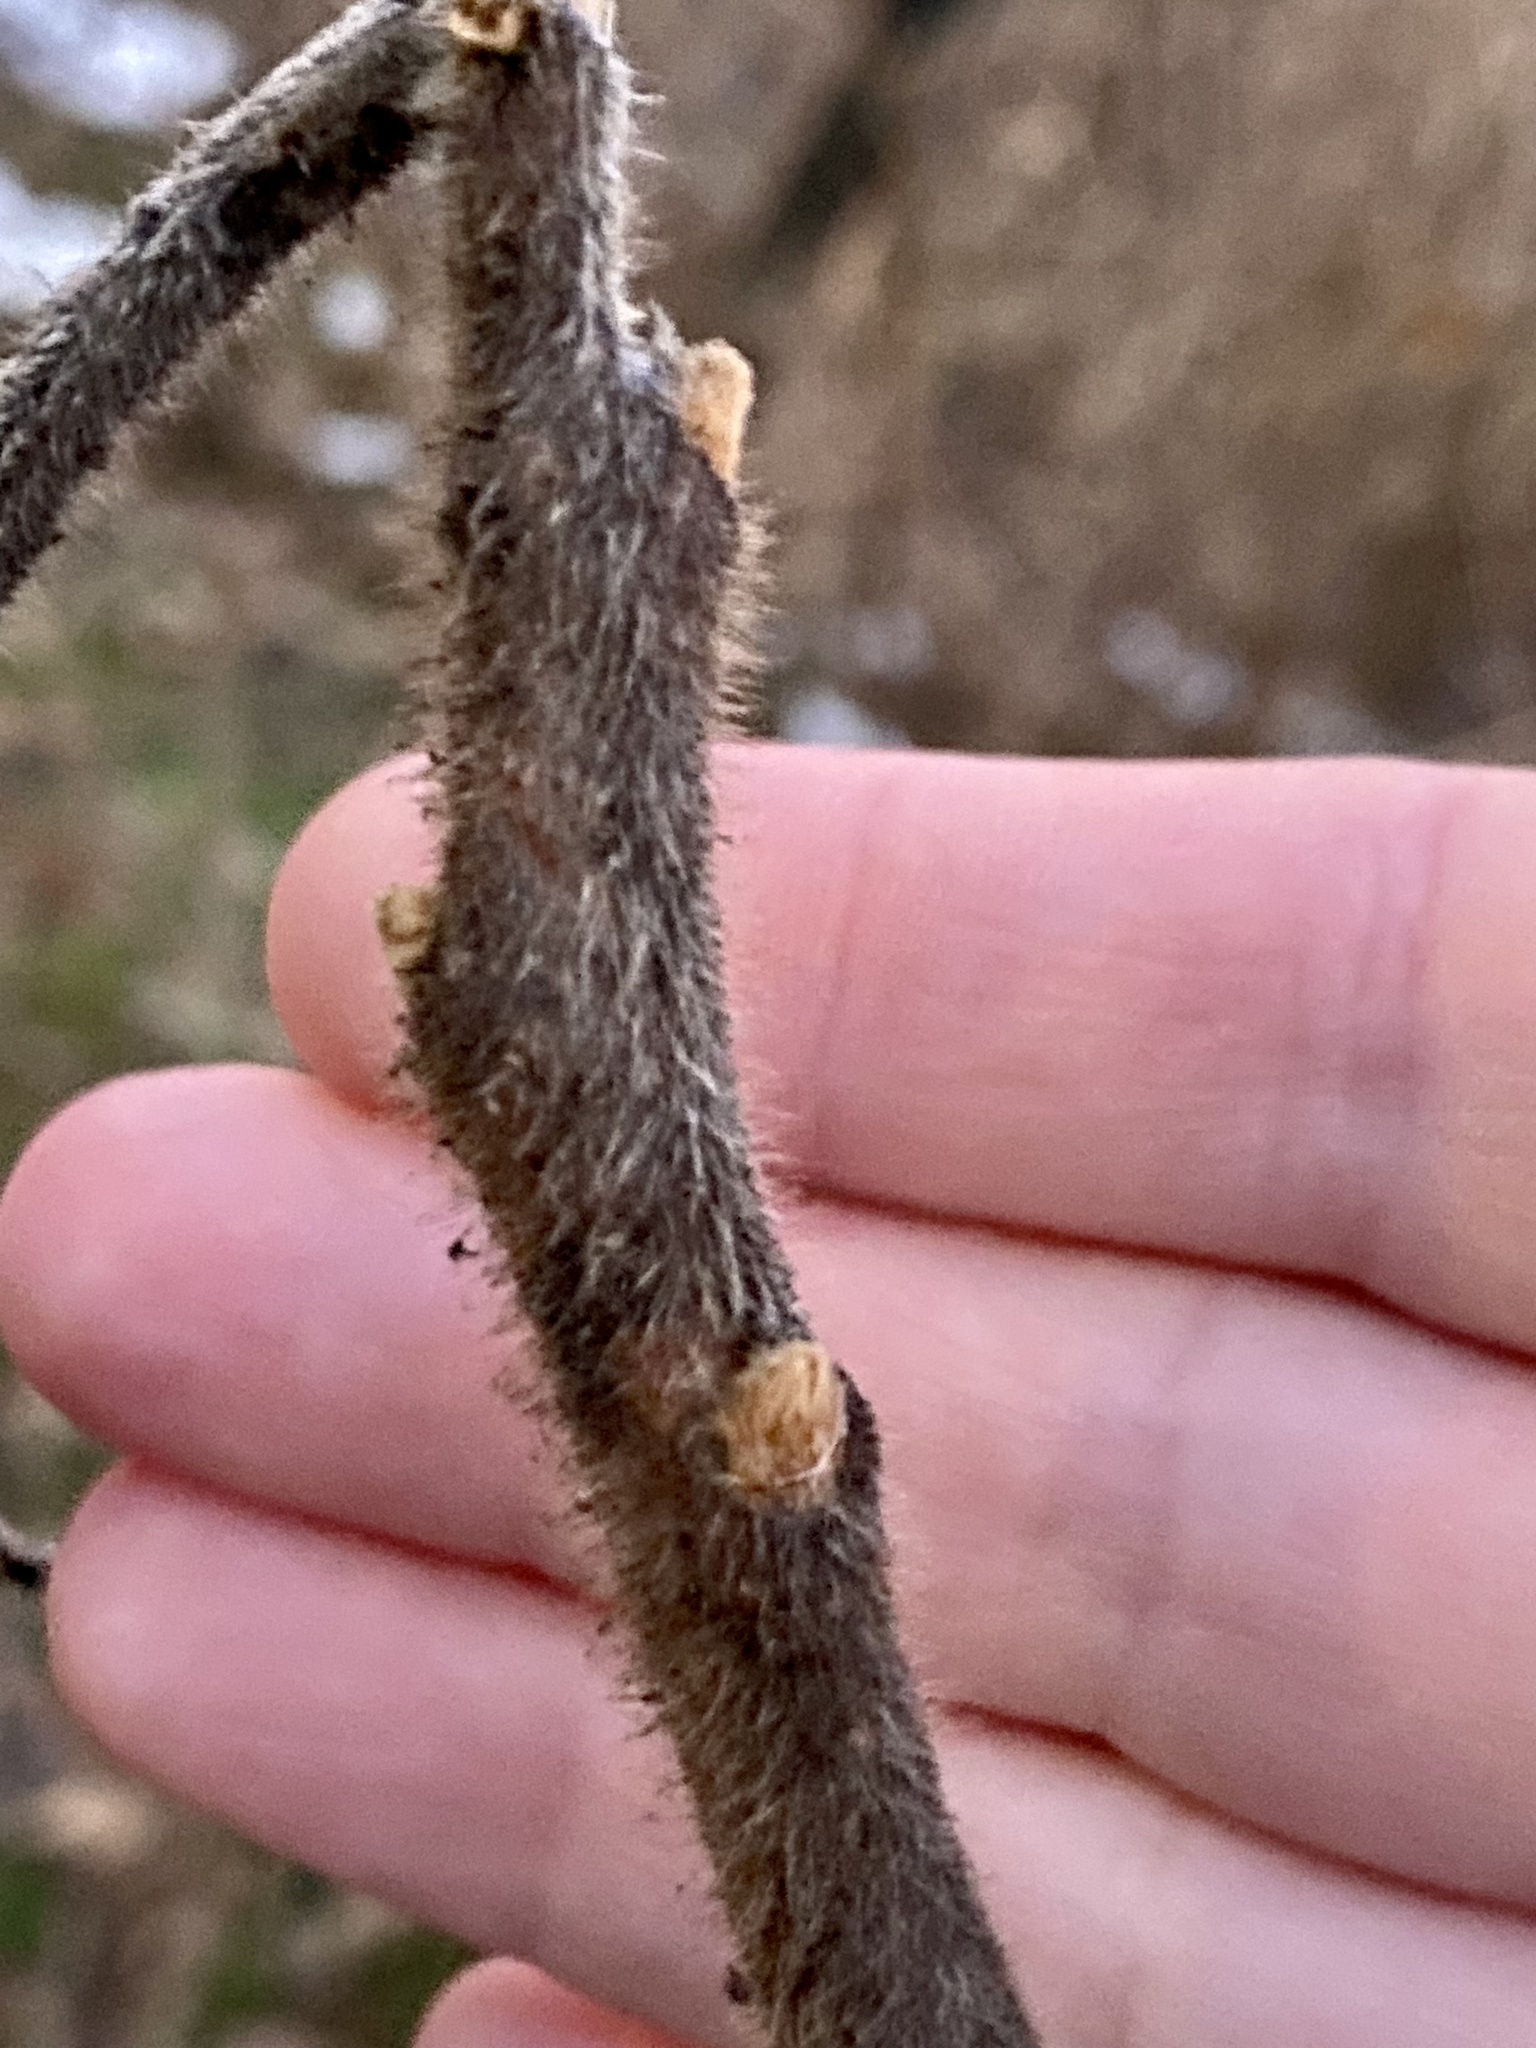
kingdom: Plantae
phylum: Tracheophyta
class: Magnoliopsida
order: Sapindales
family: Anacardiaceae
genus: Rhus
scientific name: Rhus typhina
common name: Staghorn sumac
